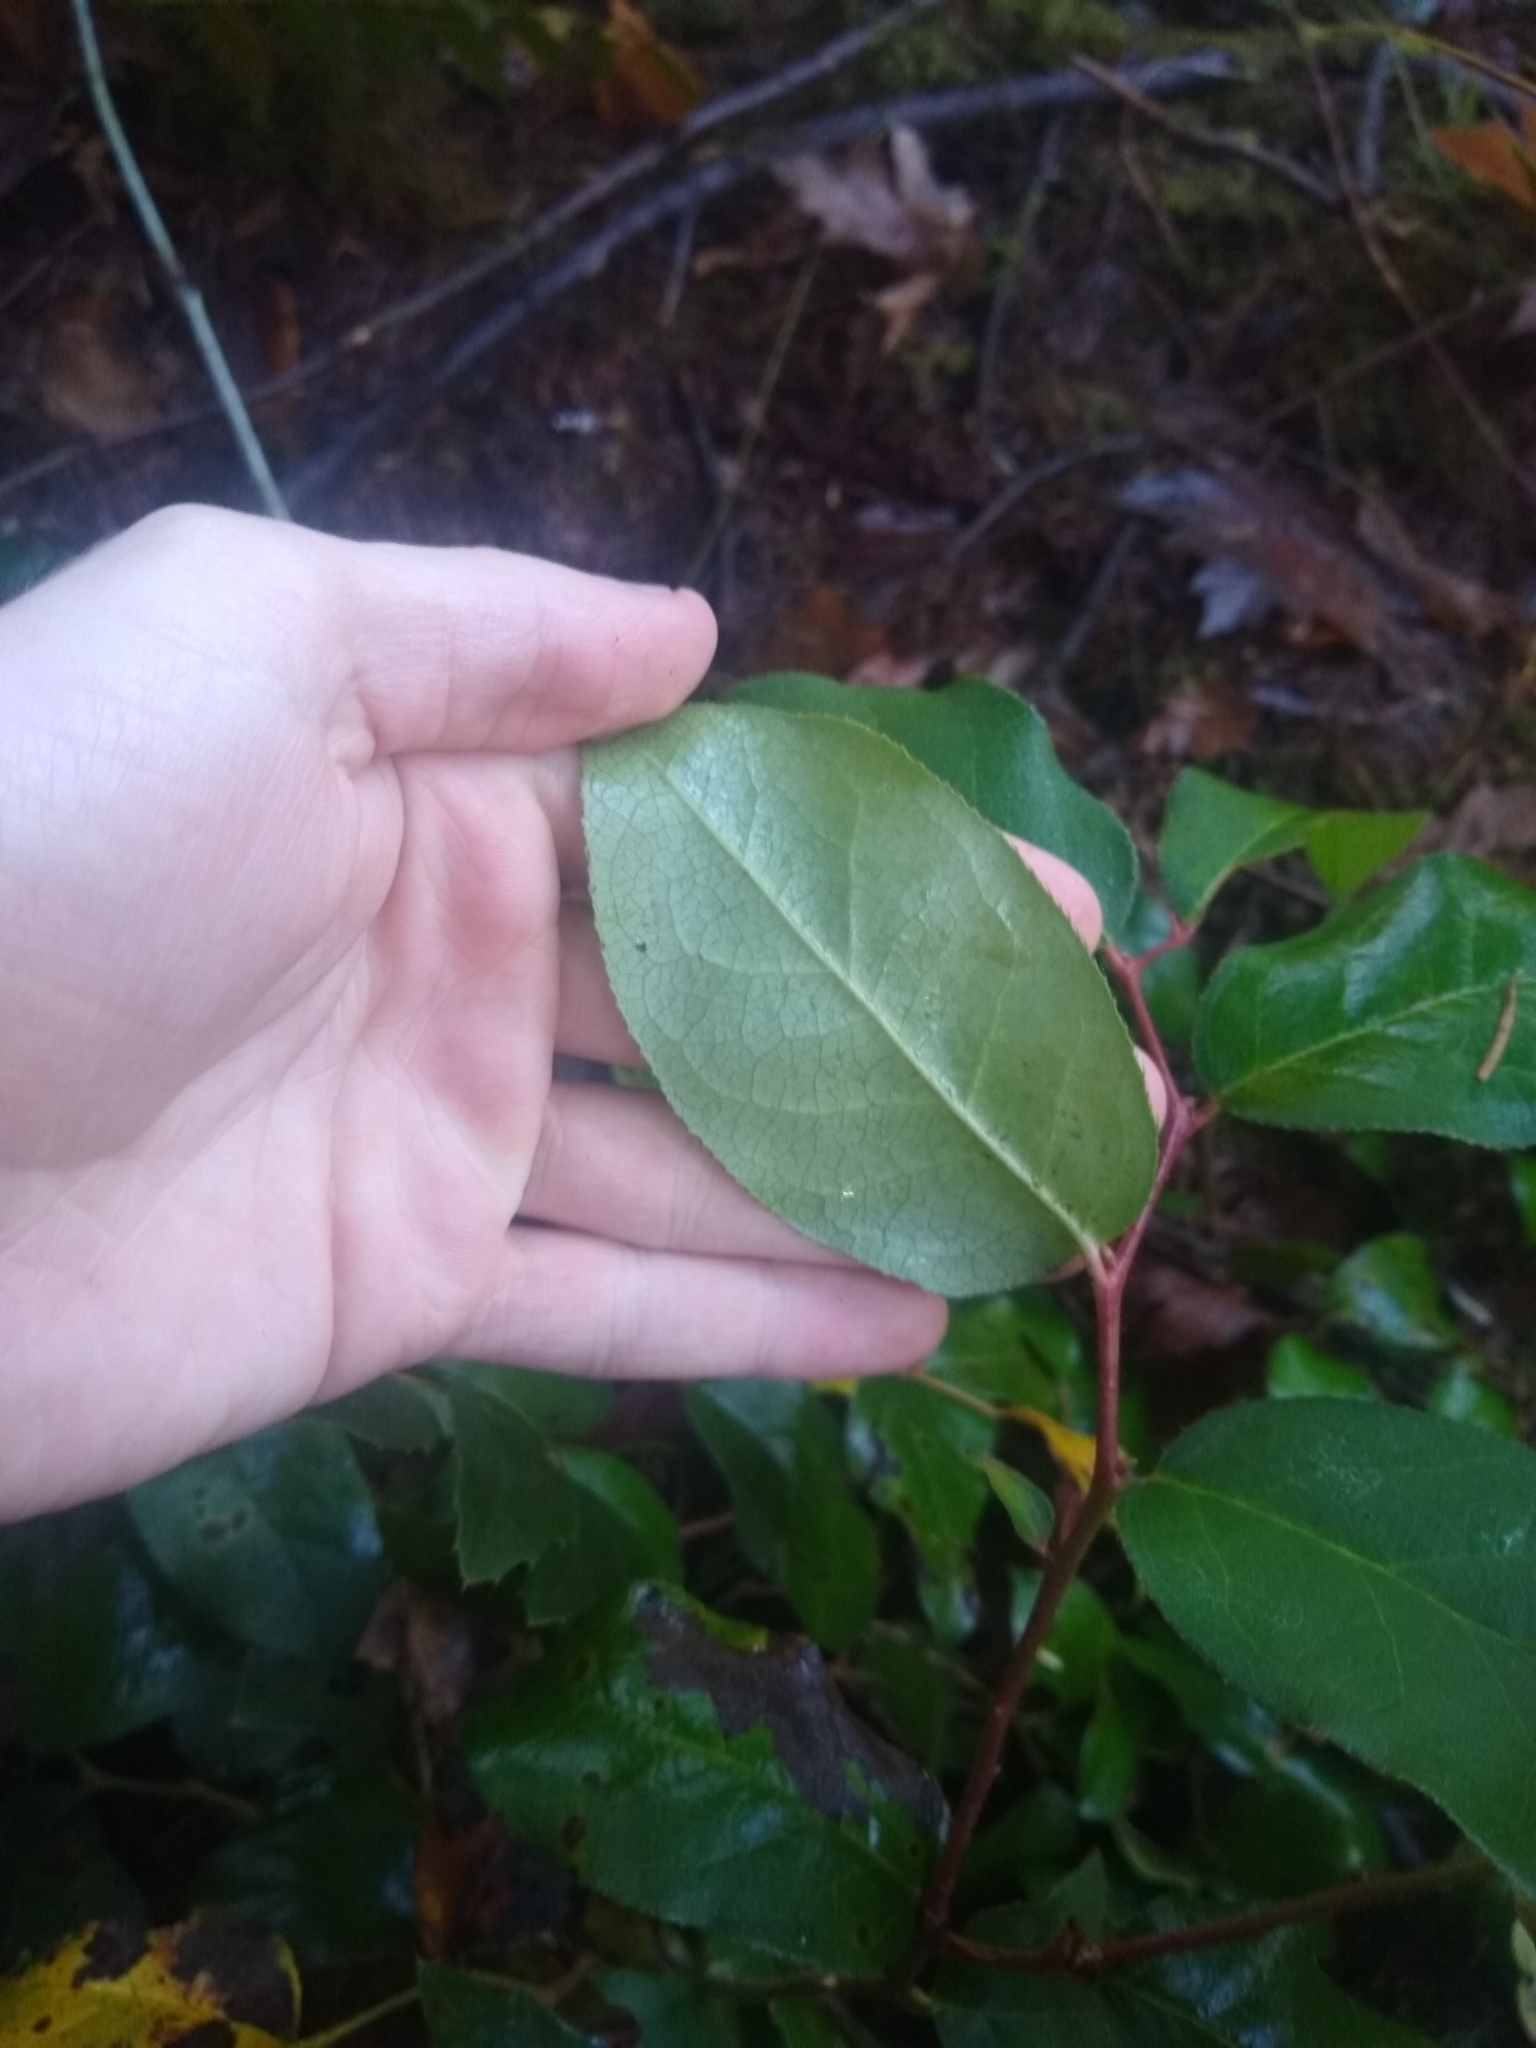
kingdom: Plantae
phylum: Tracheophyta
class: Magnoliopsida
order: Ericales
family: Ericaceae
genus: Gaultheria
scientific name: Gaultheria shallon
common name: Shallon
